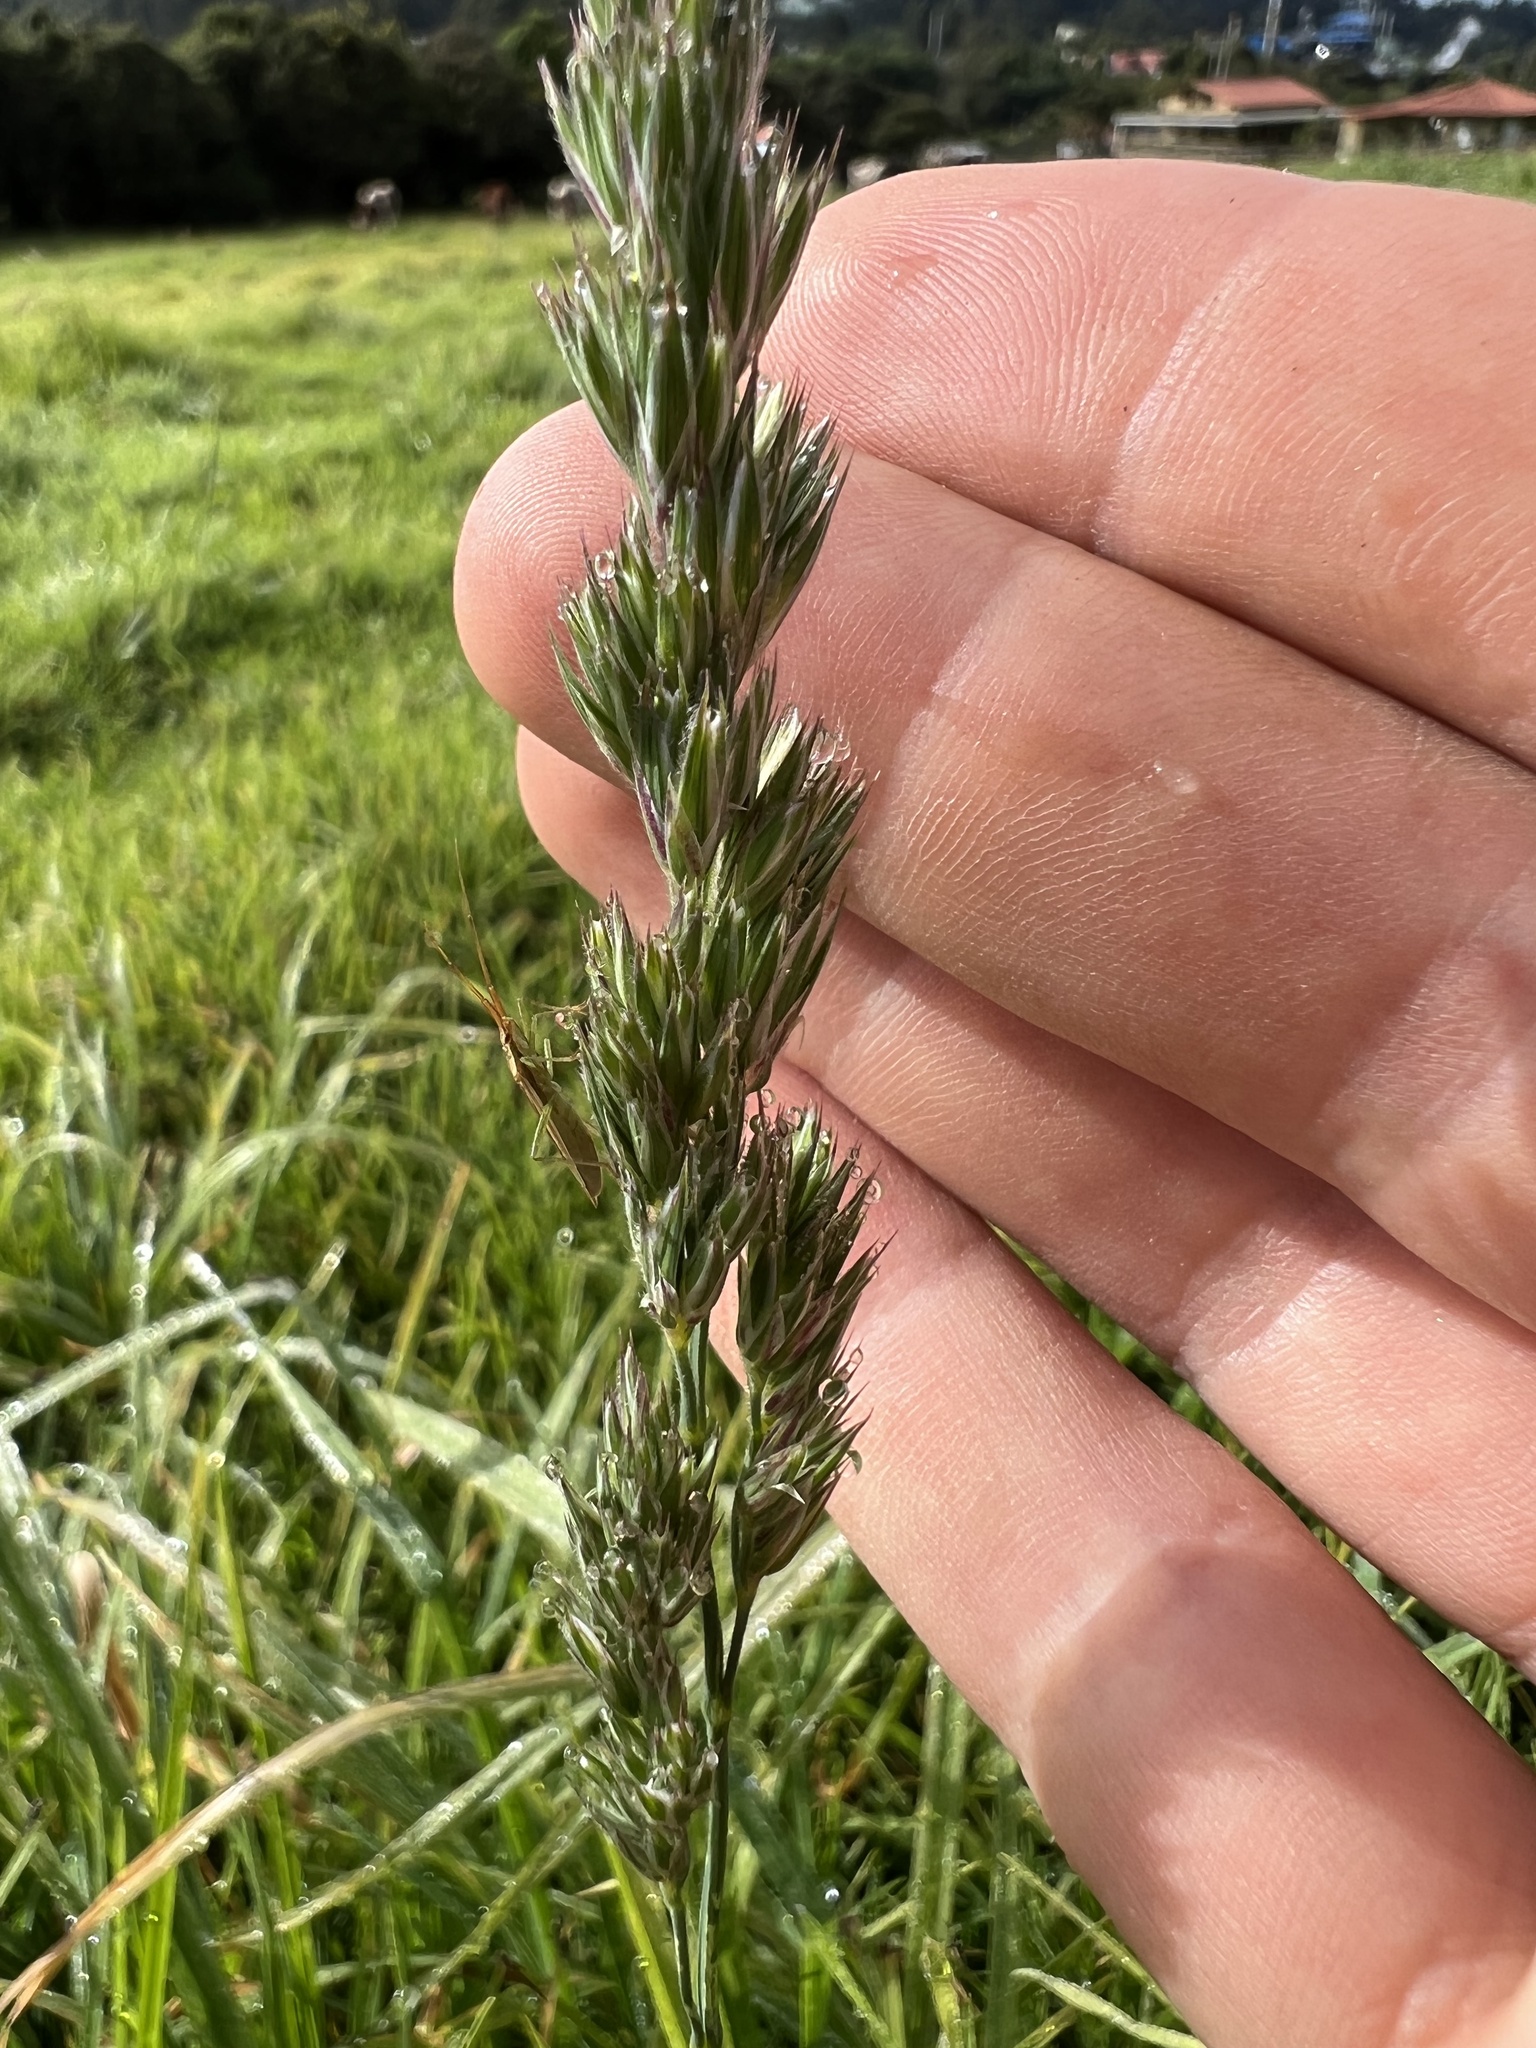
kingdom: Plantae
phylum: Tracheophyta
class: Liliopsida
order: Poales
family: Poaceae
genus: Dactylis
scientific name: Dactylis glomerata
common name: Orchardgrass
